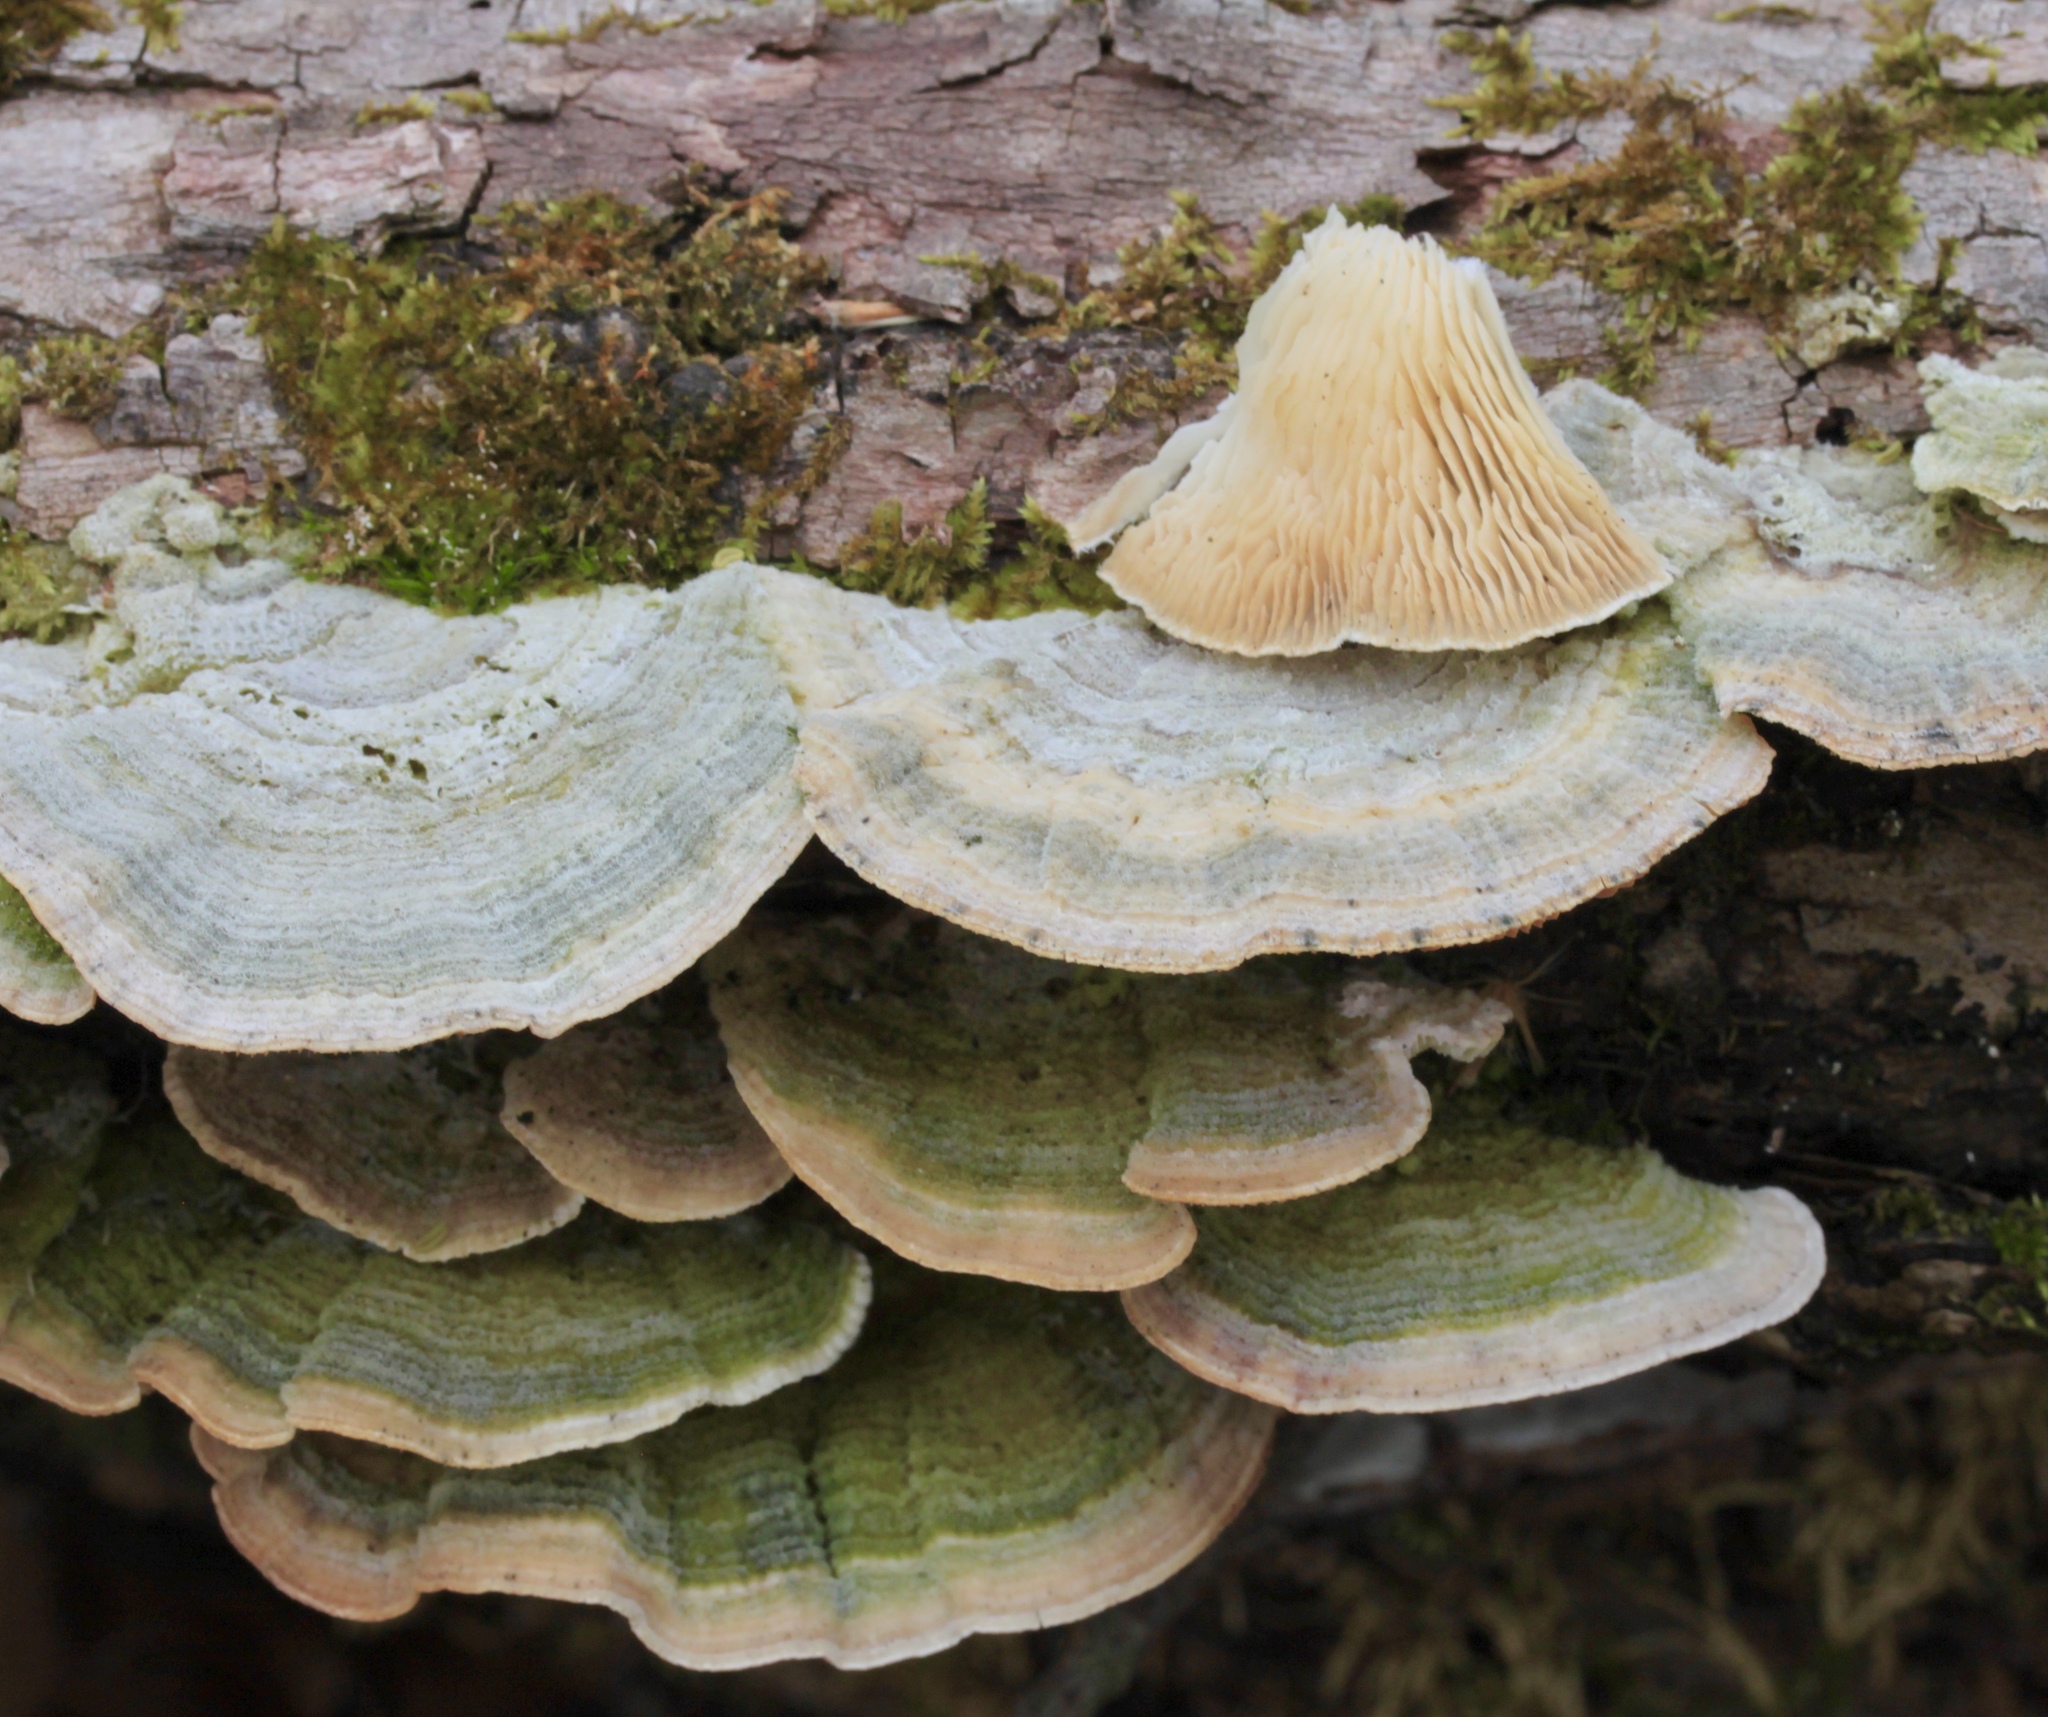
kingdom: Fungi
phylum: Basidiomycota
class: Agaricomycetes
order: Polyporales
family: Polyporaceae
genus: Lenzites
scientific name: Lenzites betulinus
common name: Birch mazegill
